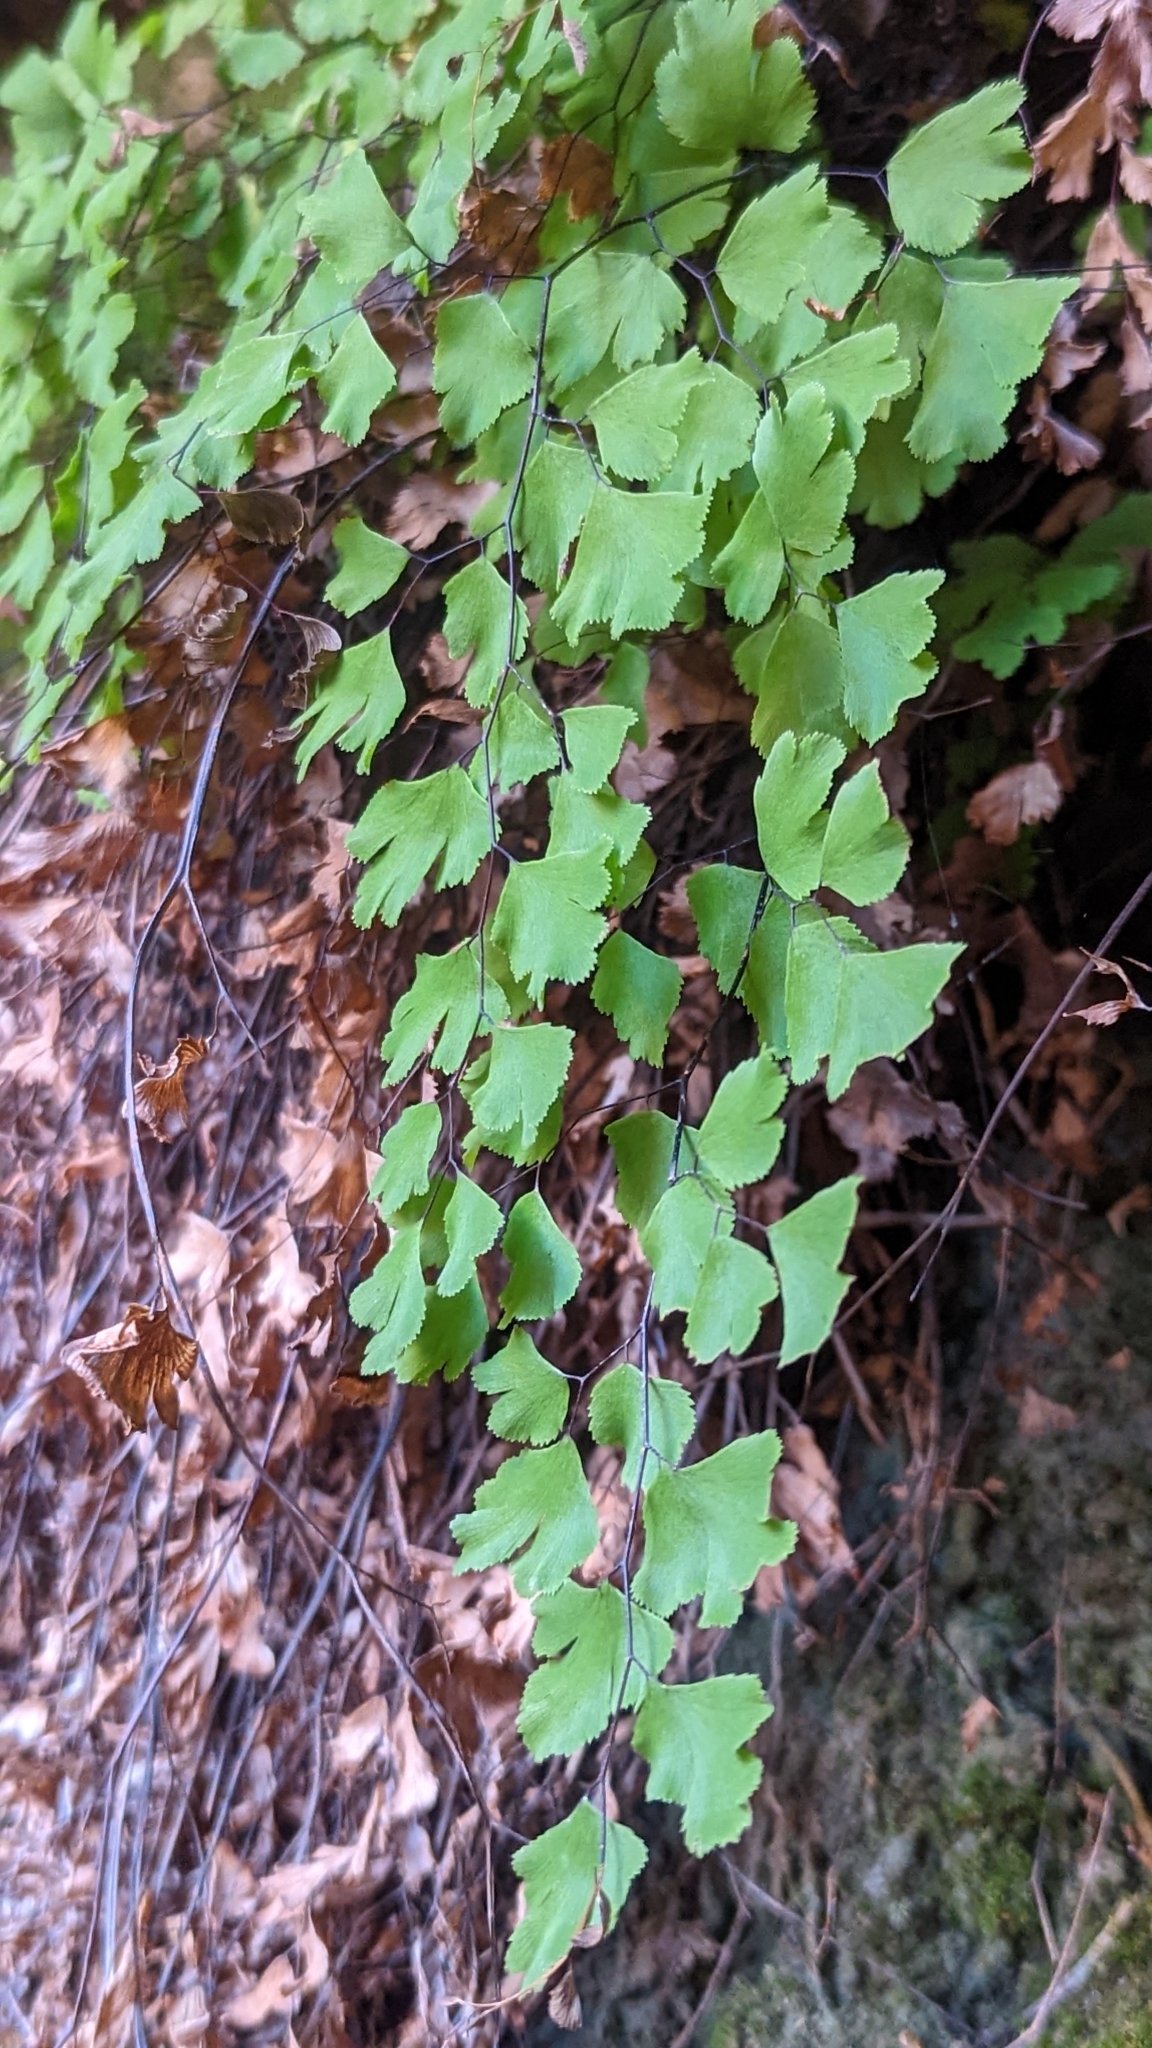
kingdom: Plantae
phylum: Tracheophyta
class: Polypodiopsida
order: Polypodiales
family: Pteridaceae
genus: Adiantum
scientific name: Adiantum capillus-veneris
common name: Maidenhair fern
